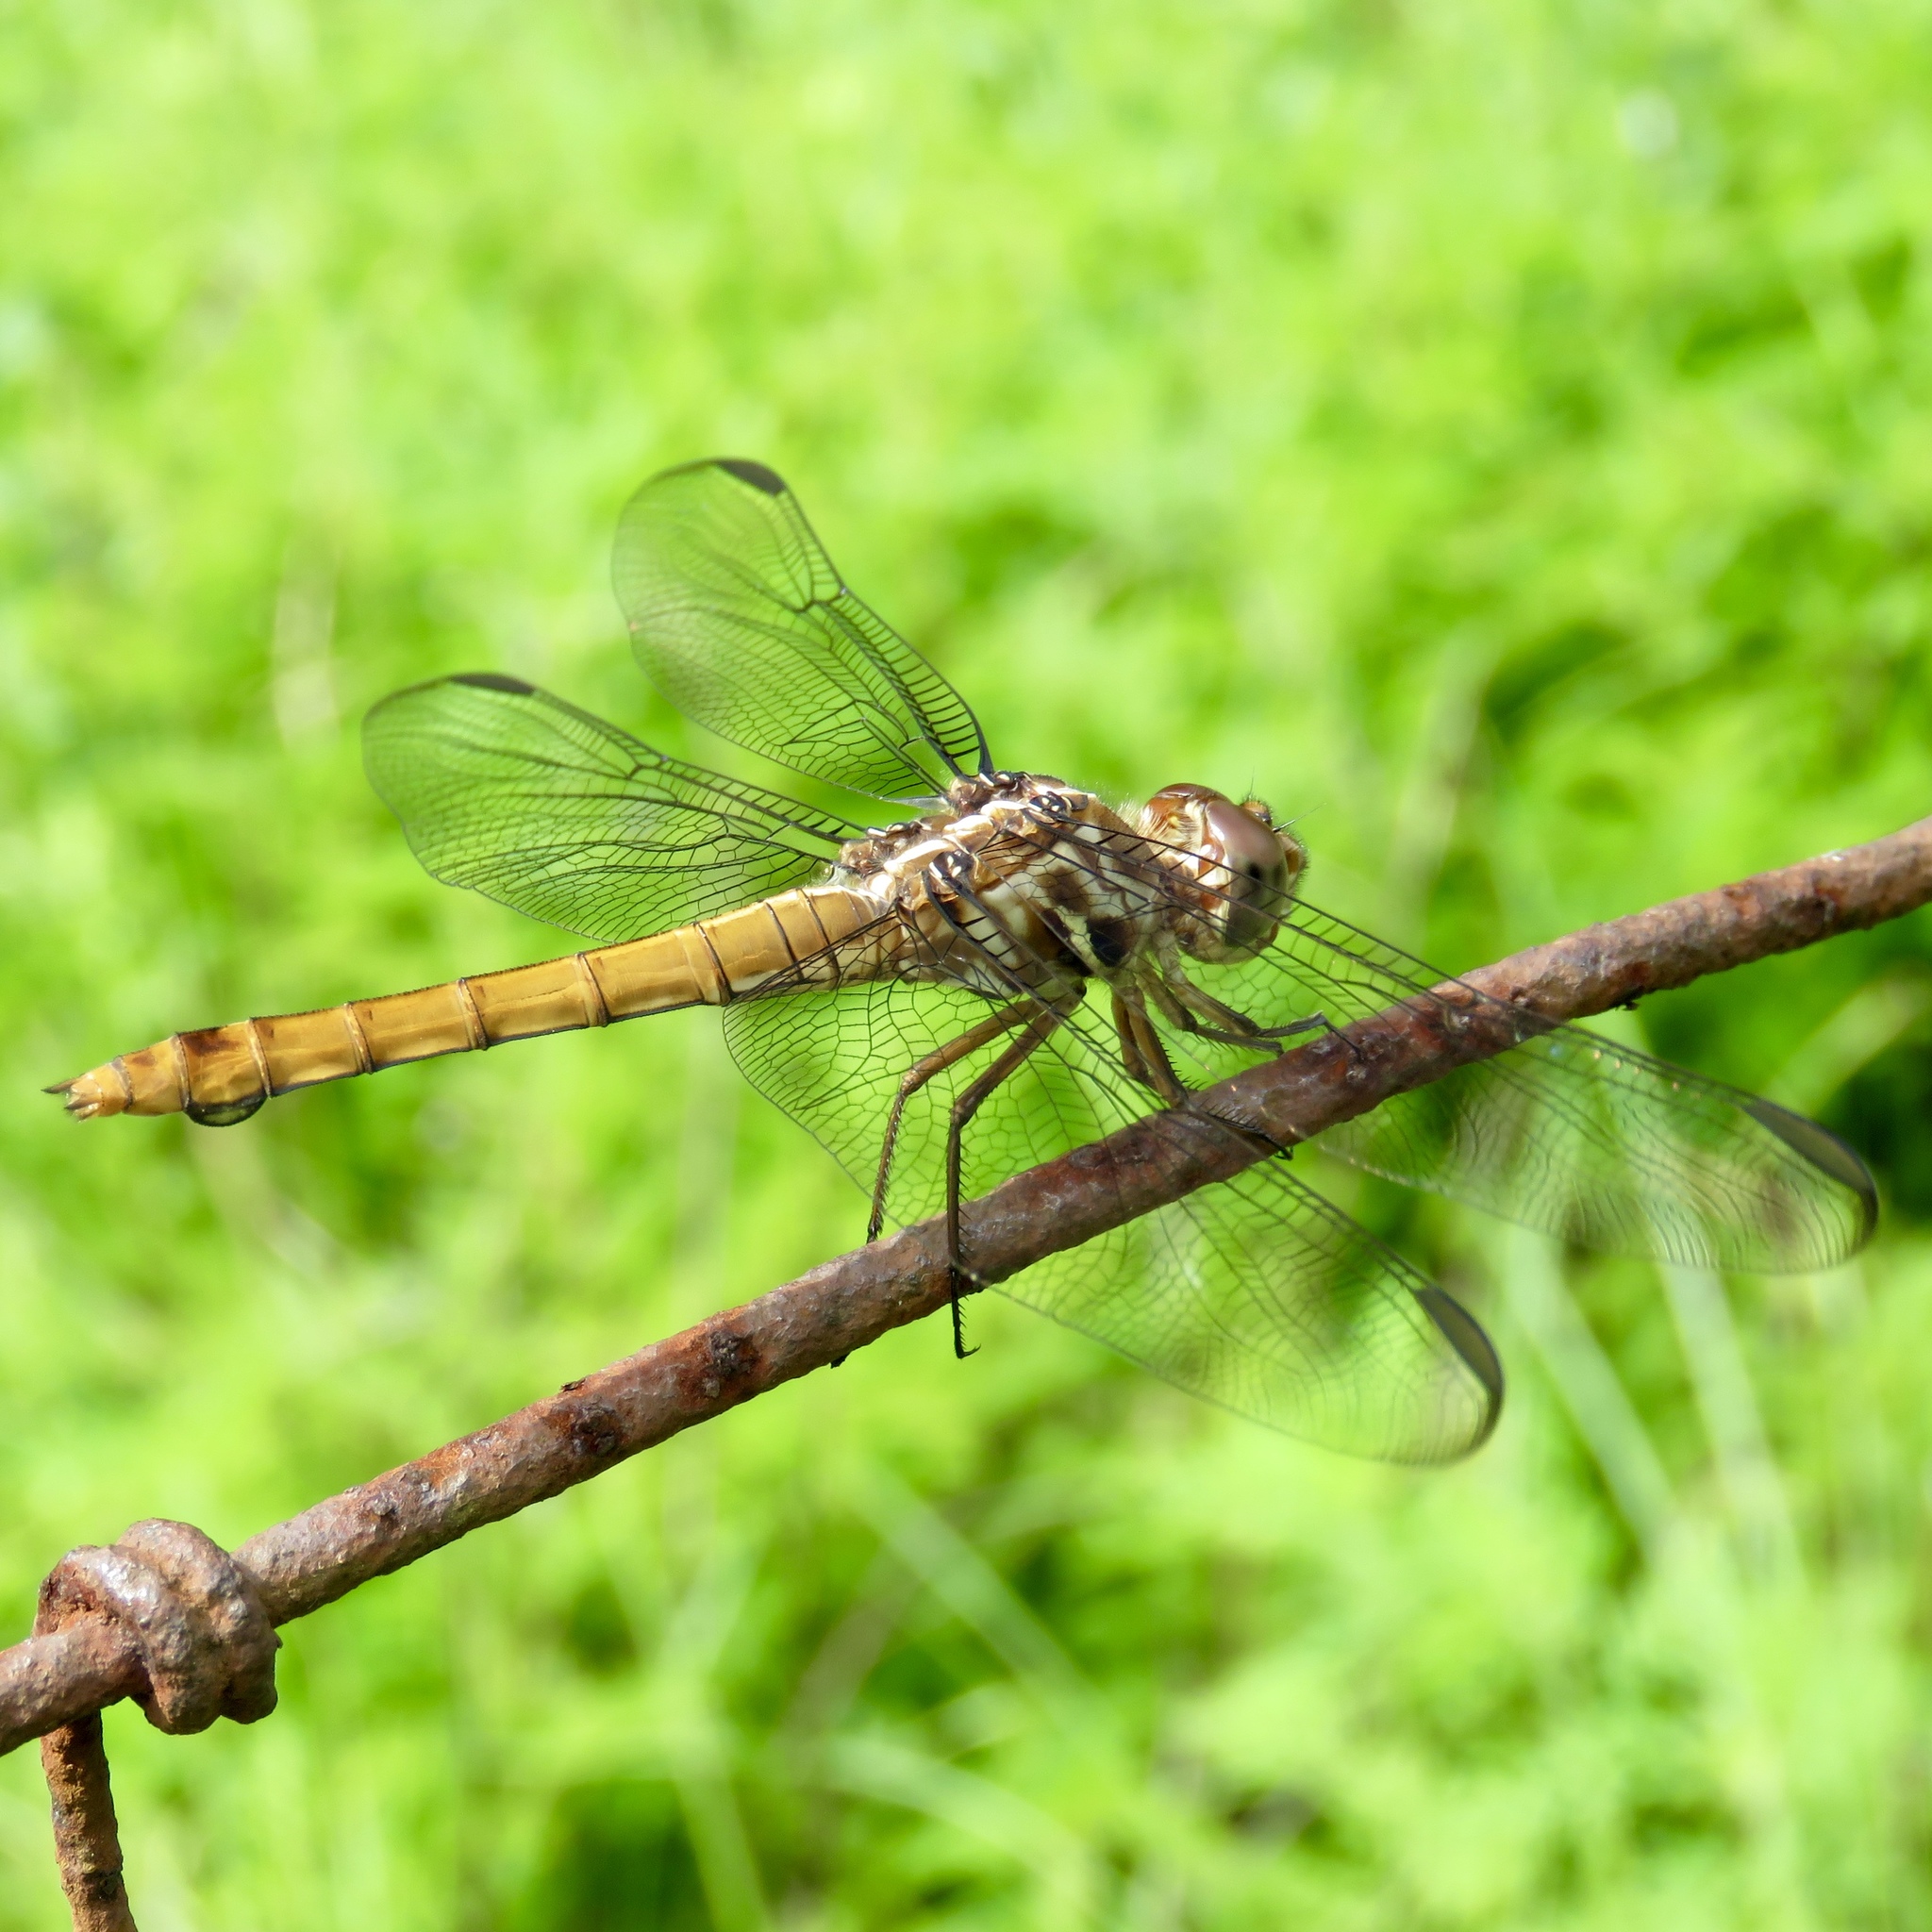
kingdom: Animalia
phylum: Arthropoda
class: Insecta
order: Odonata
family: Libellulidae
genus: Orthemis
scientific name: Orthemis ferruginea
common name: Roseate skimmer
